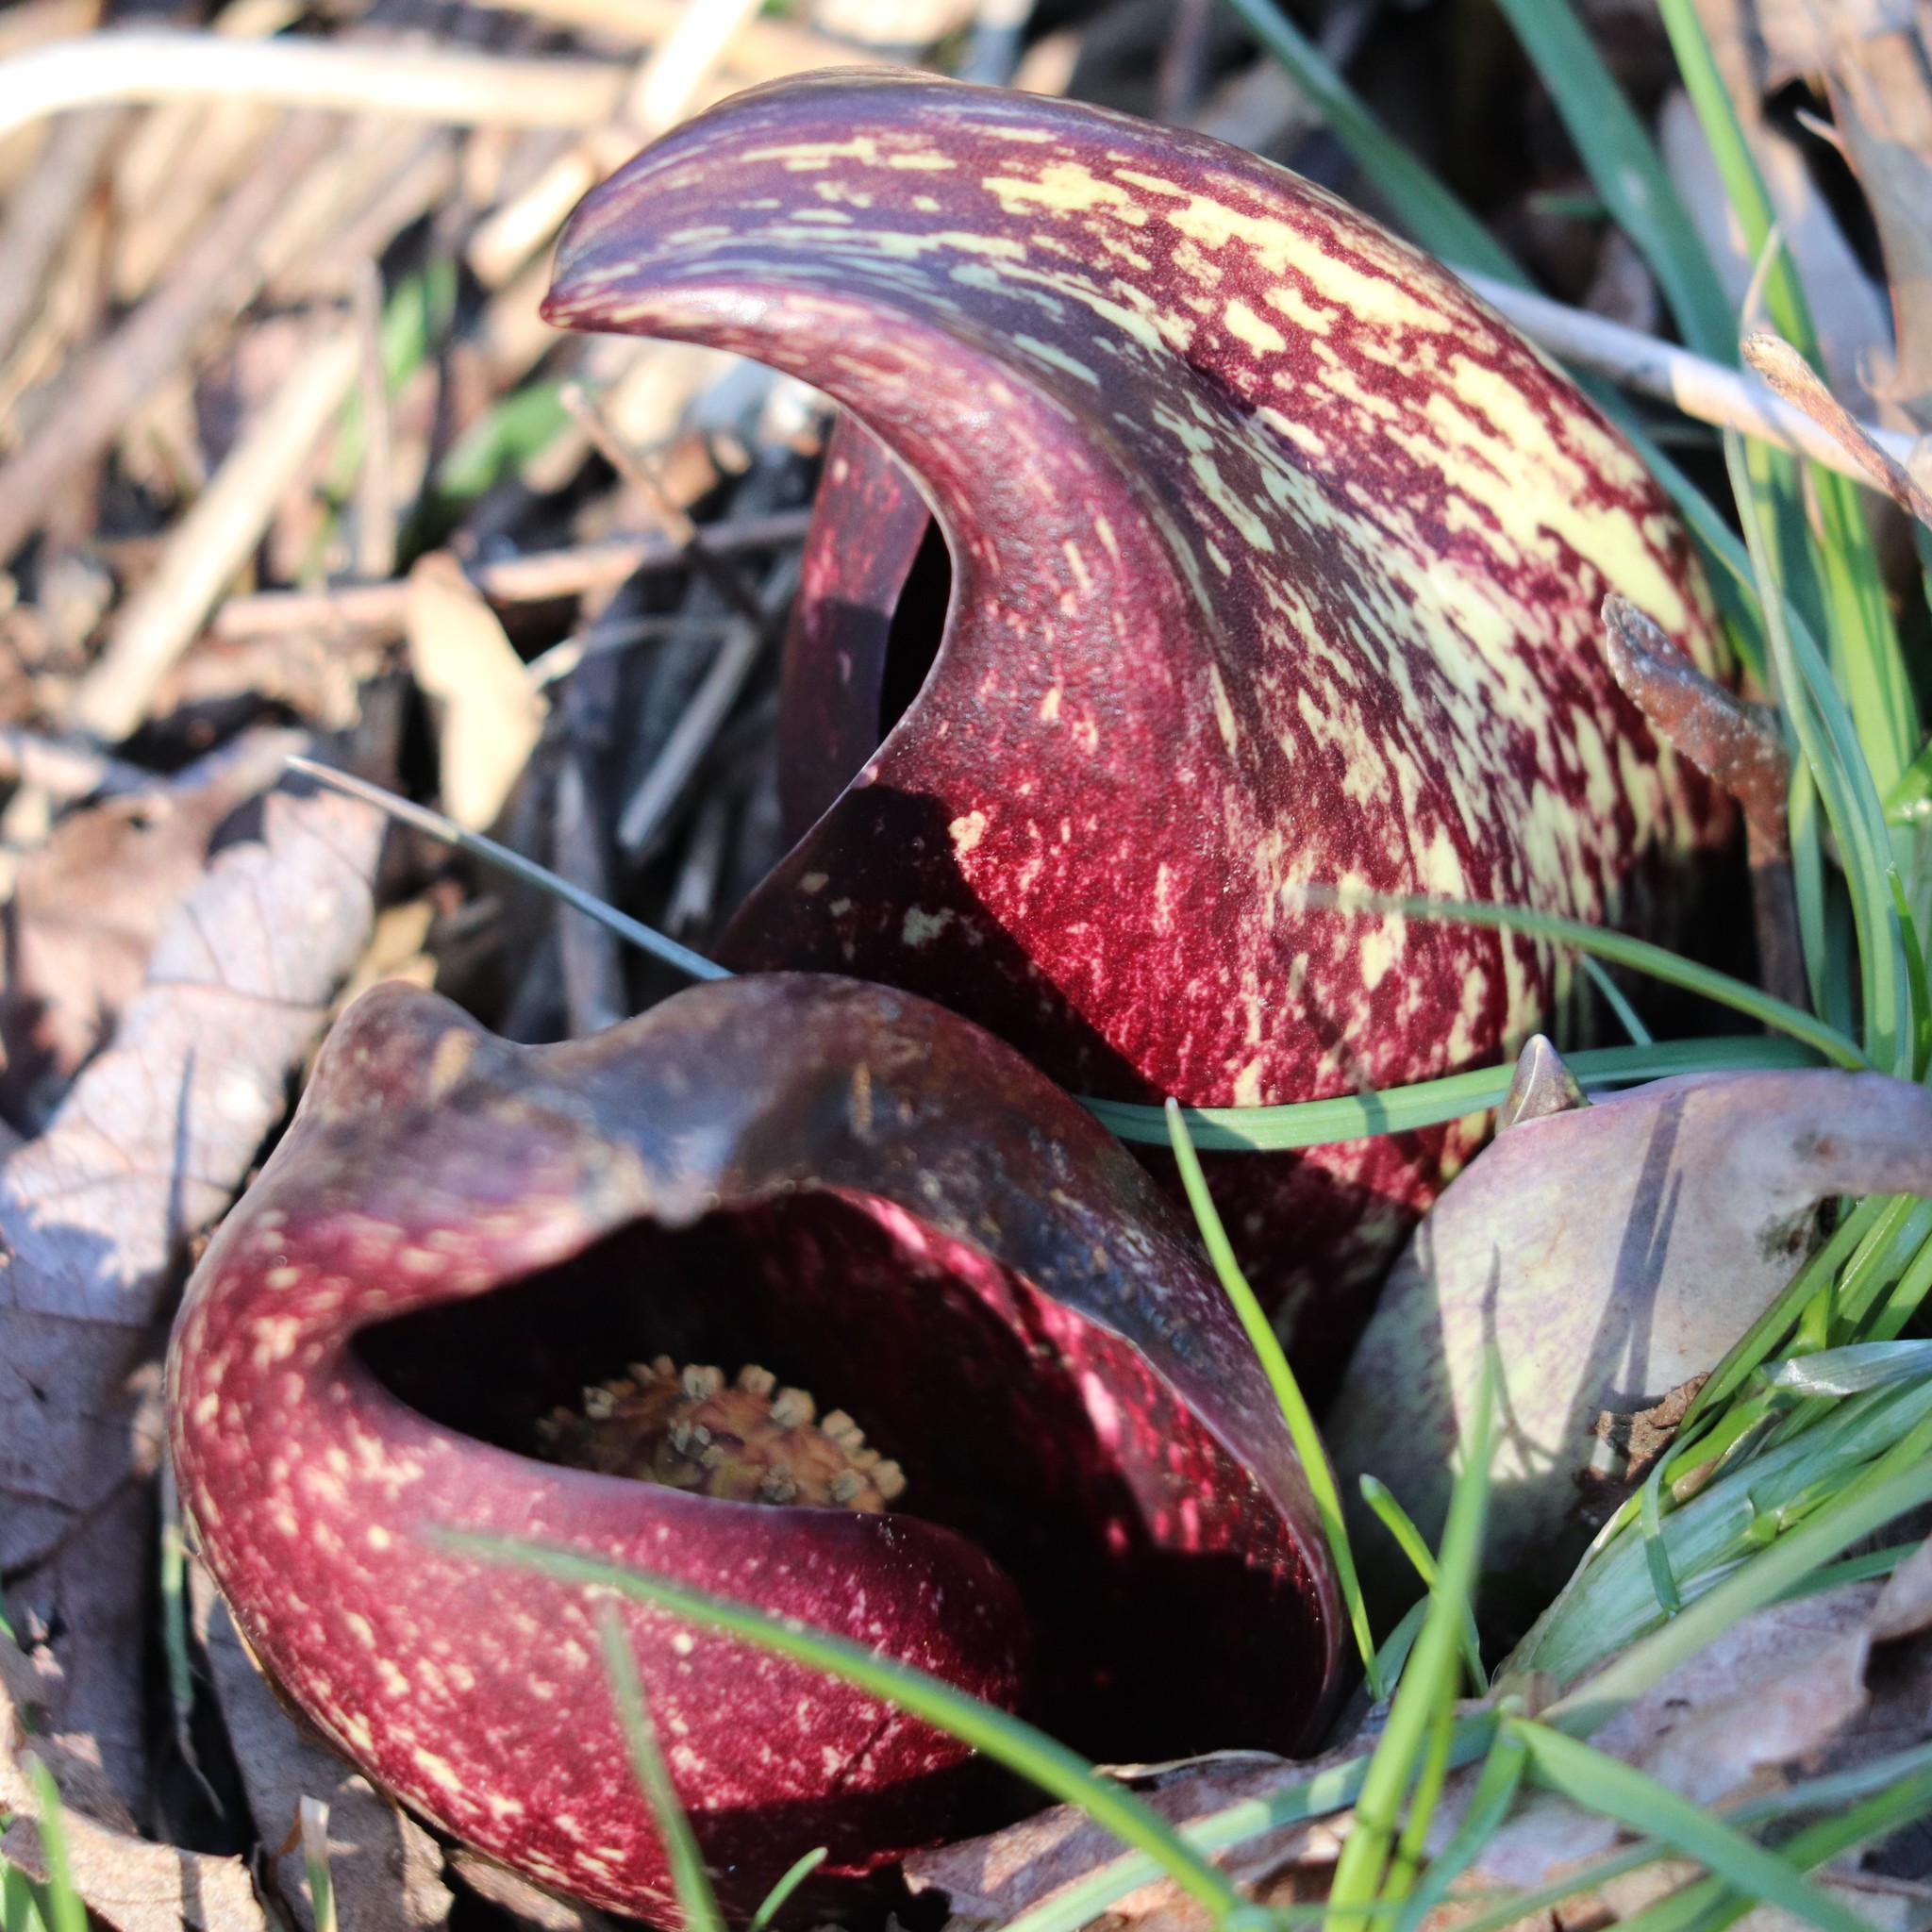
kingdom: Plantae
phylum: Tracheophyta
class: Liliopsida
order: Alismatales
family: Araceae
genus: Symplocarpus
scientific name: Symplocarpus foetidus
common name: Eastern skunk cabbage
